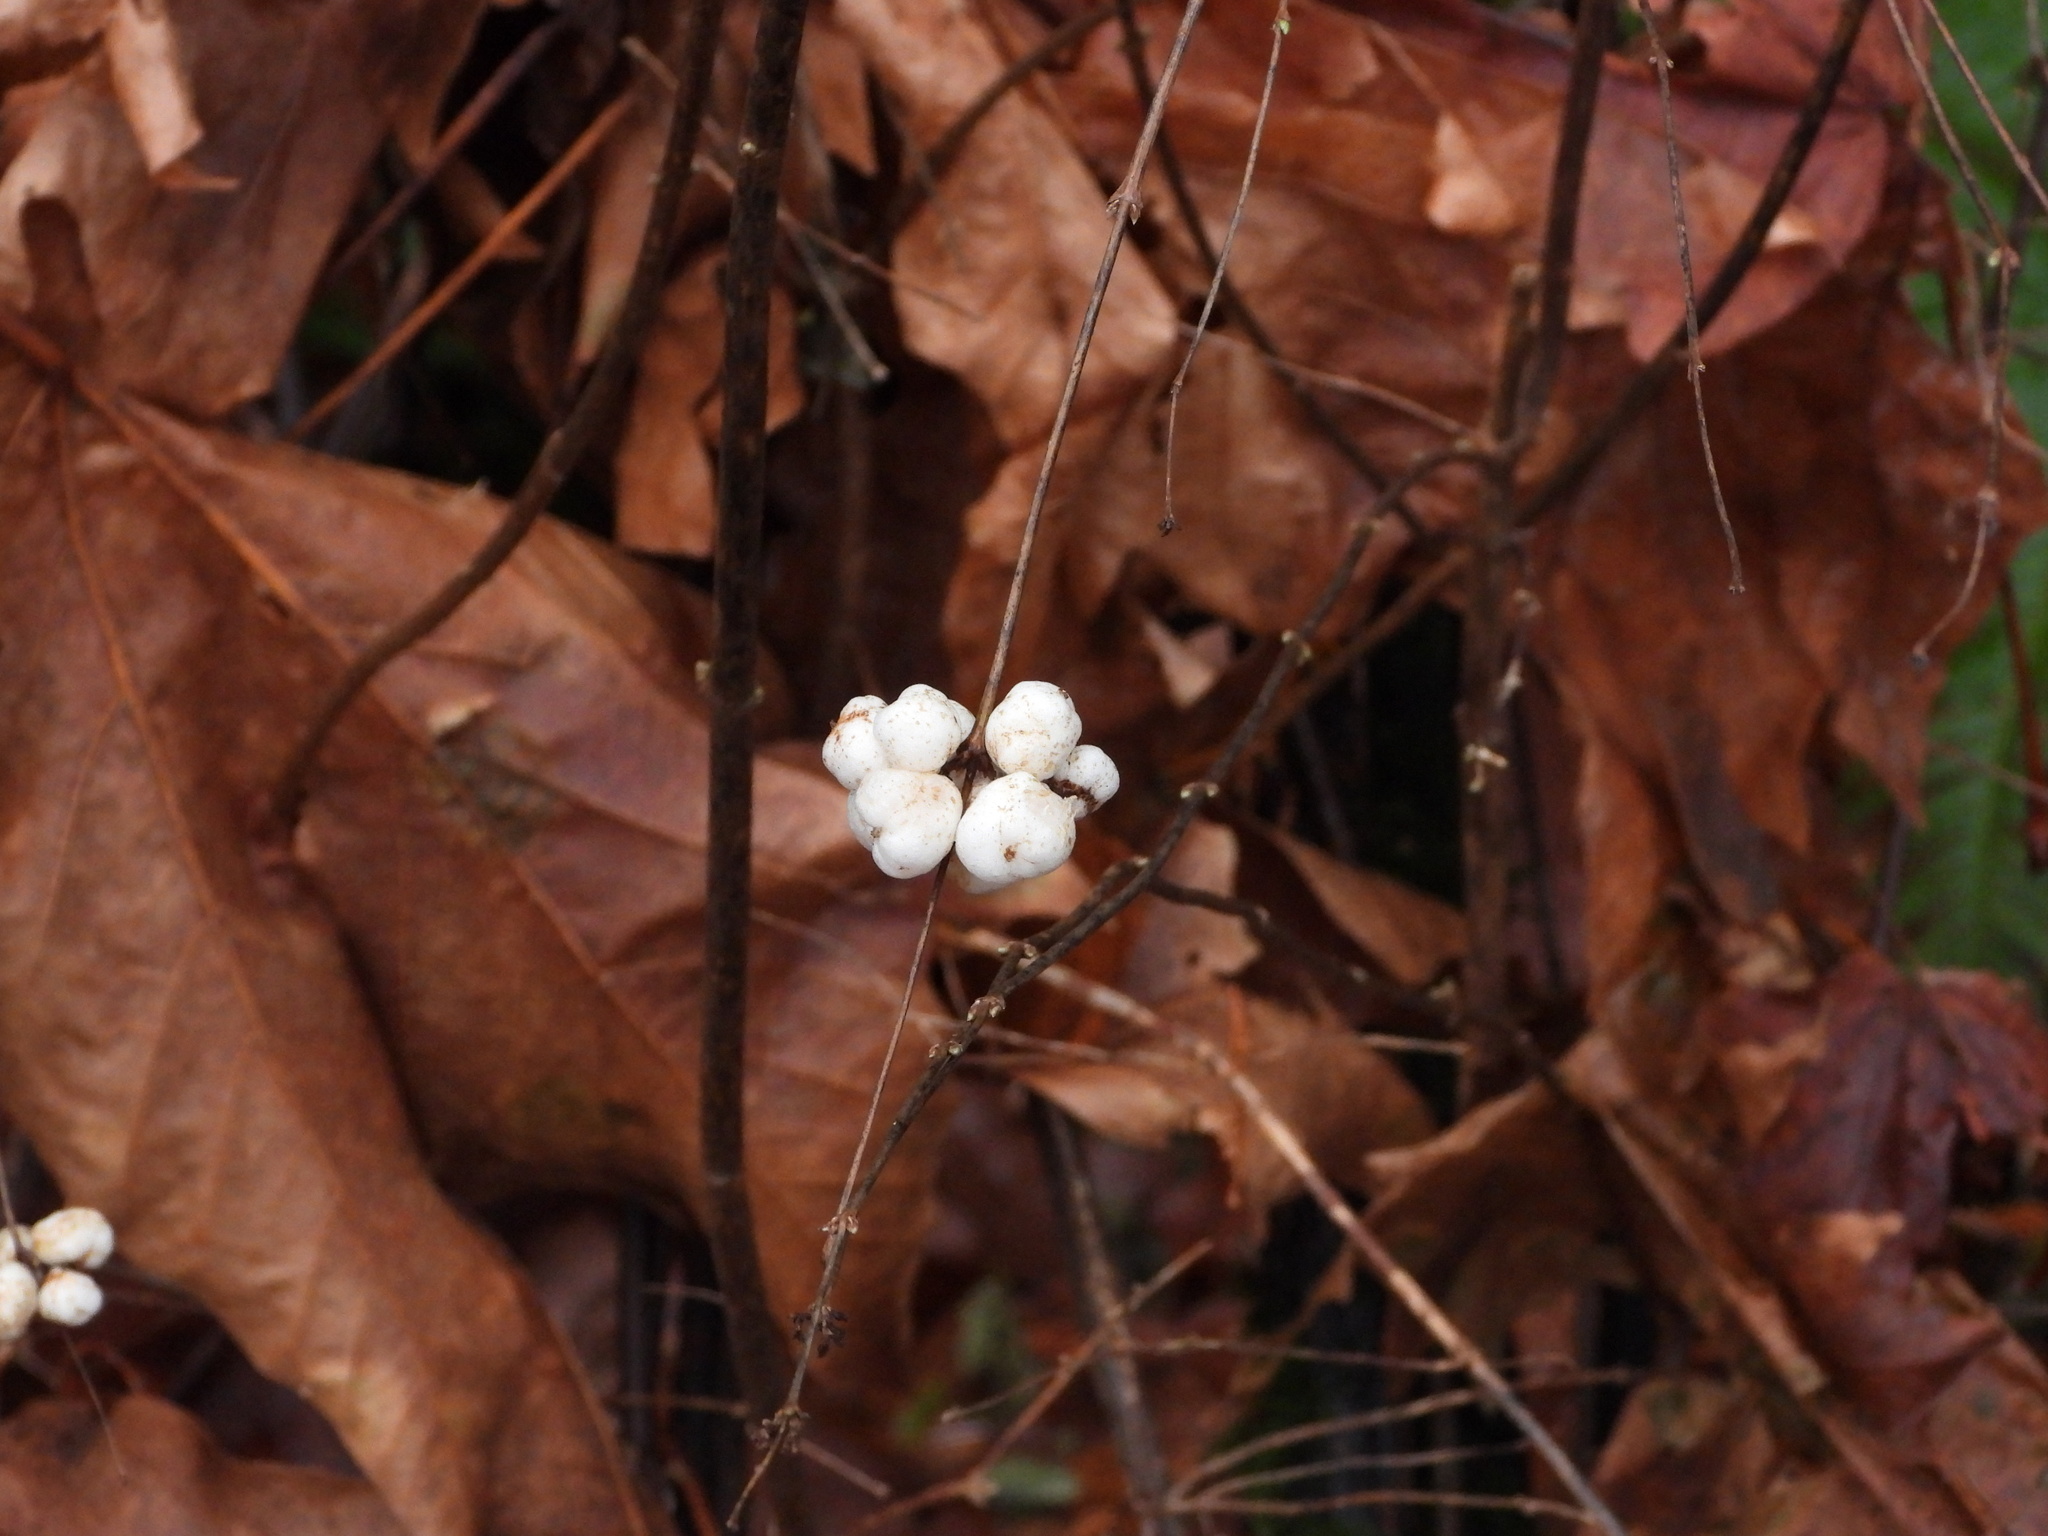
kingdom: Plantae
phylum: Tracheophyta
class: Magnoliopsida
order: Dipsacales
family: Caprifoliaceae
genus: Symphoricarpos
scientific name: Symphoricarpos albus
